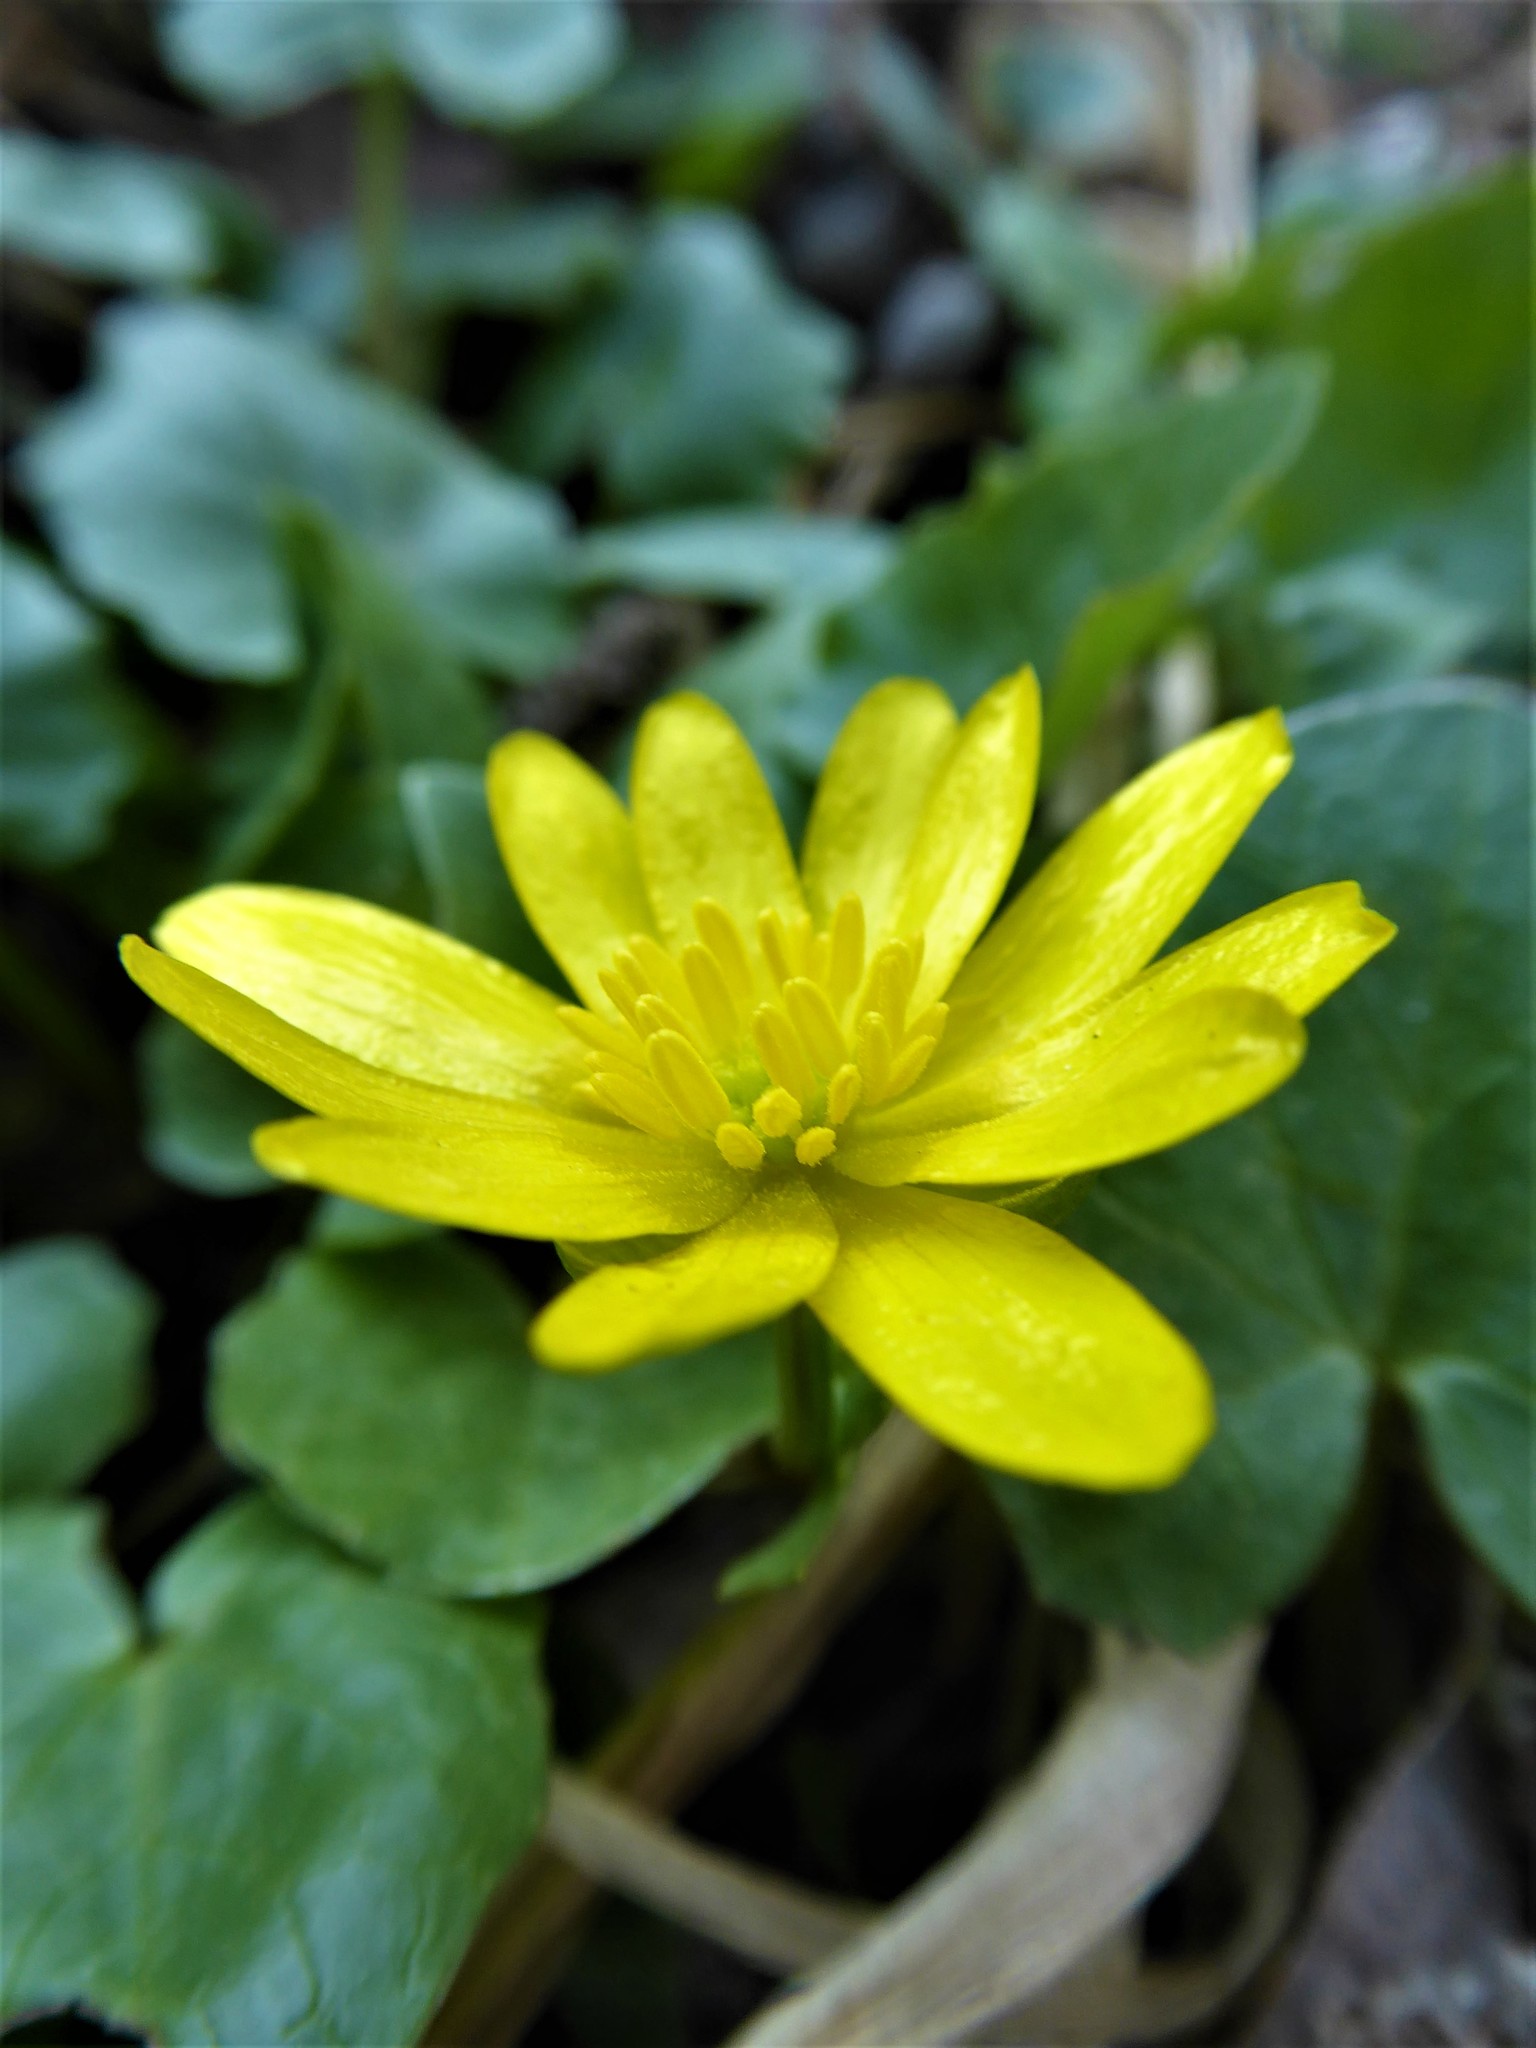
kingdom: Plantae
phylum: Tracheophyta
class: Magnoliopsida
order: Ranunculales
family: Ranunculaceae
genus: Ficaria
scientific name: Ficaria verna
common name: Lesser celandine
